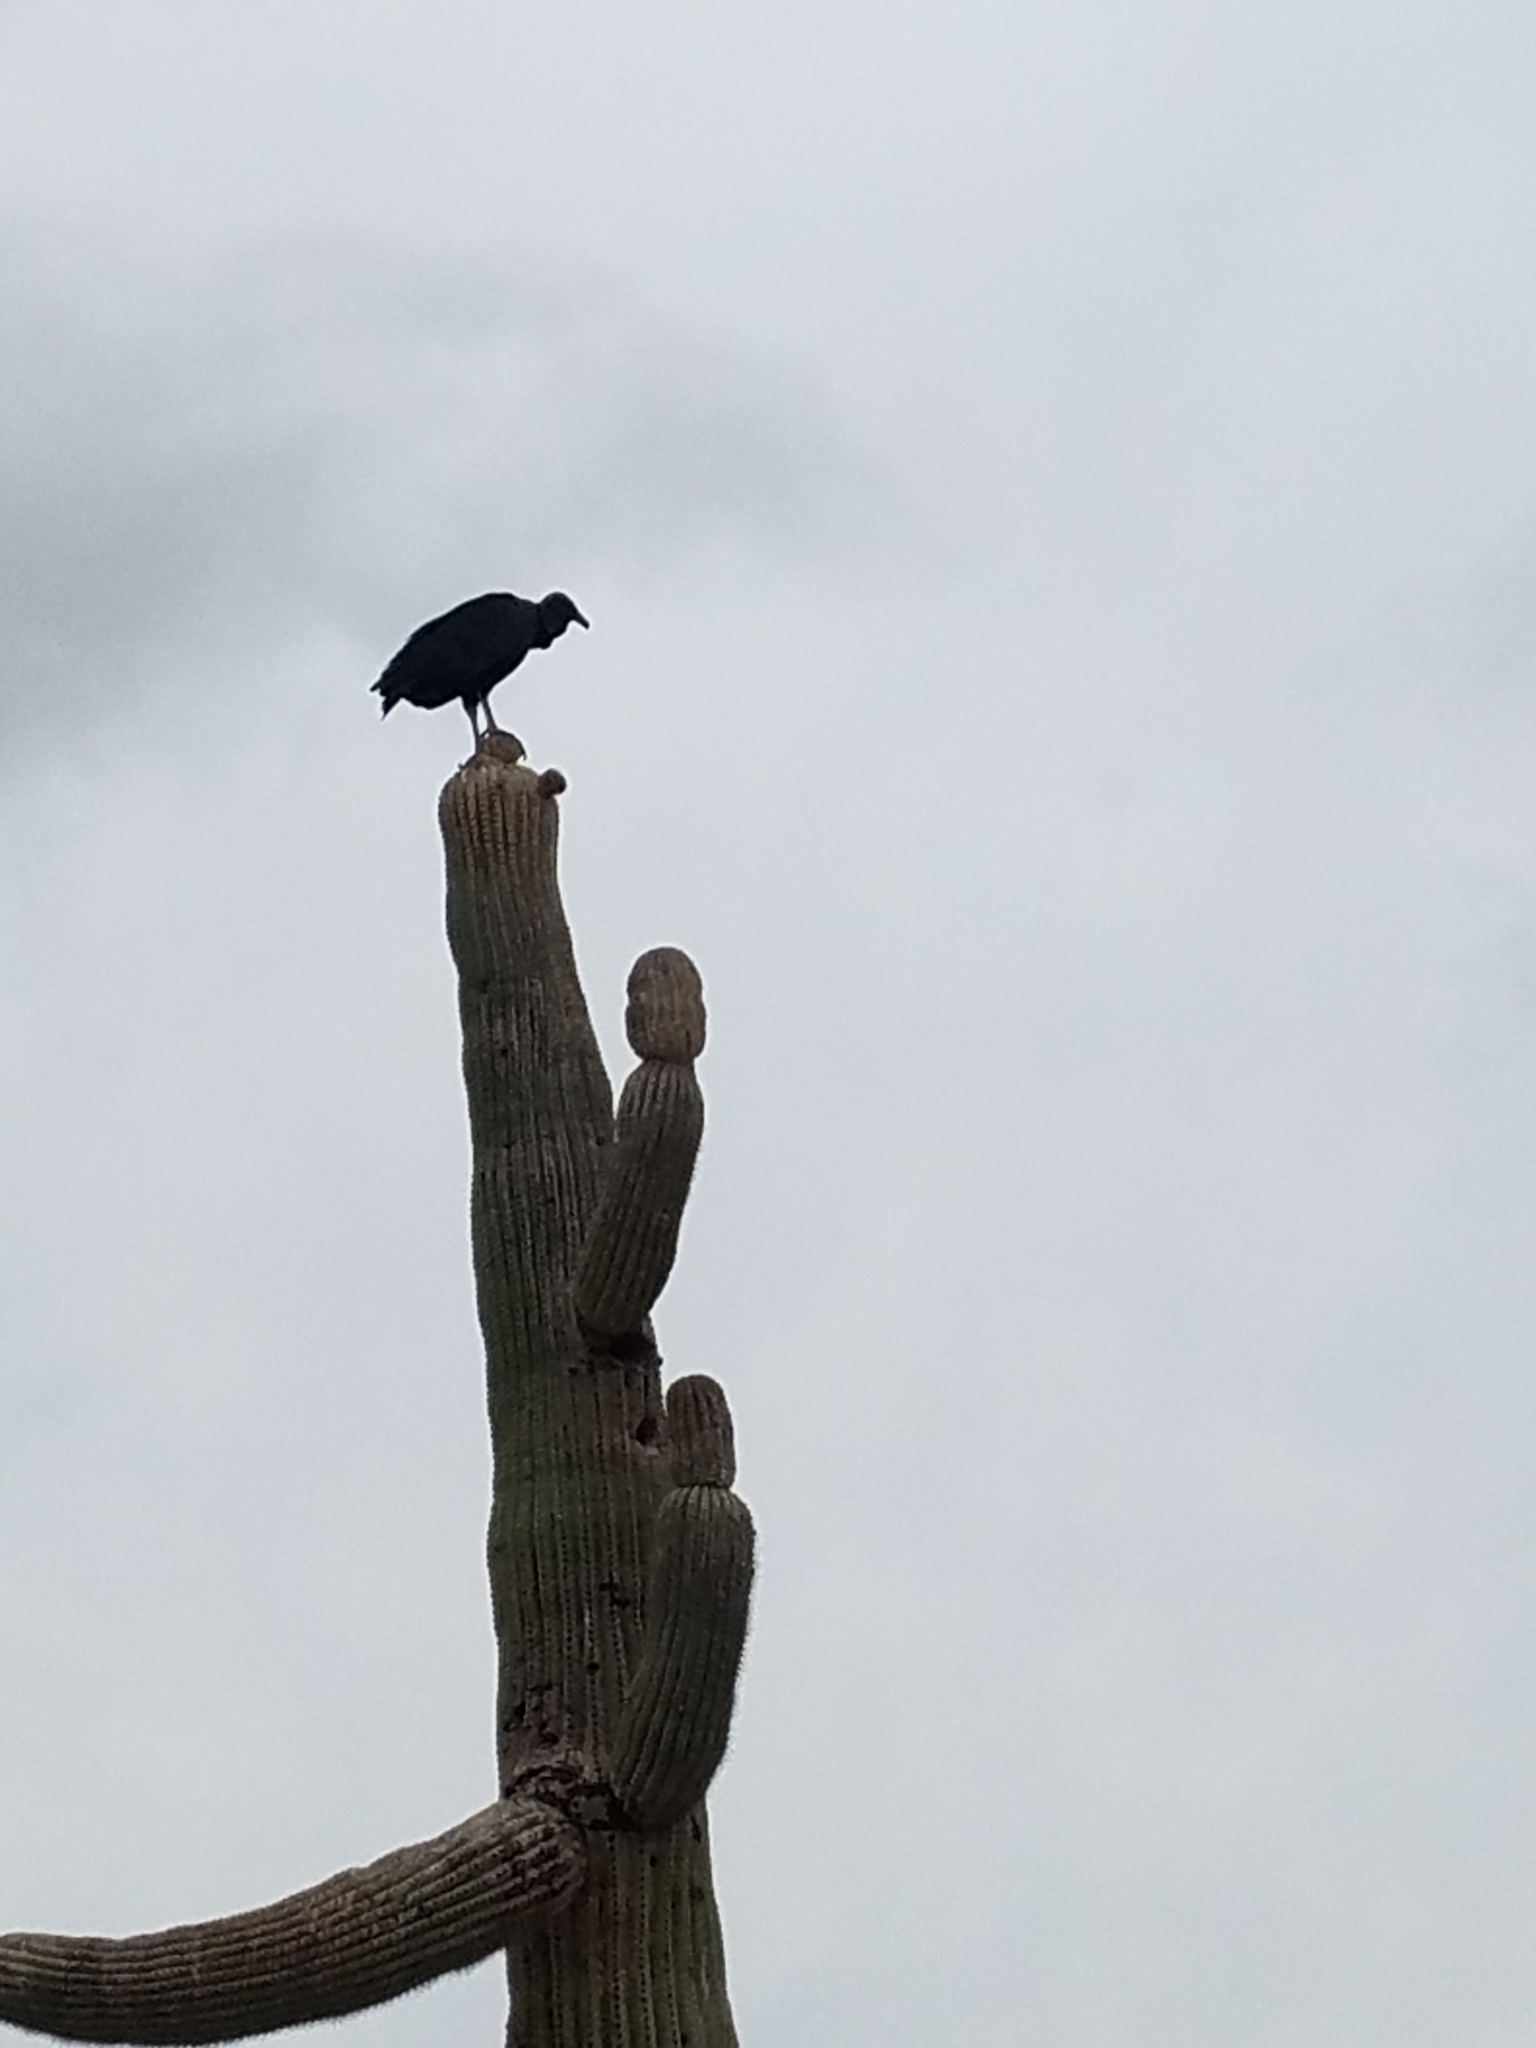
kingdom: Animalia
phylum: Chordata
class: Aves
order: Accipitriformes
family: Cathartidae
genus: Coragyps
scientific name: Coragyps atratus
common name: Black vulture
